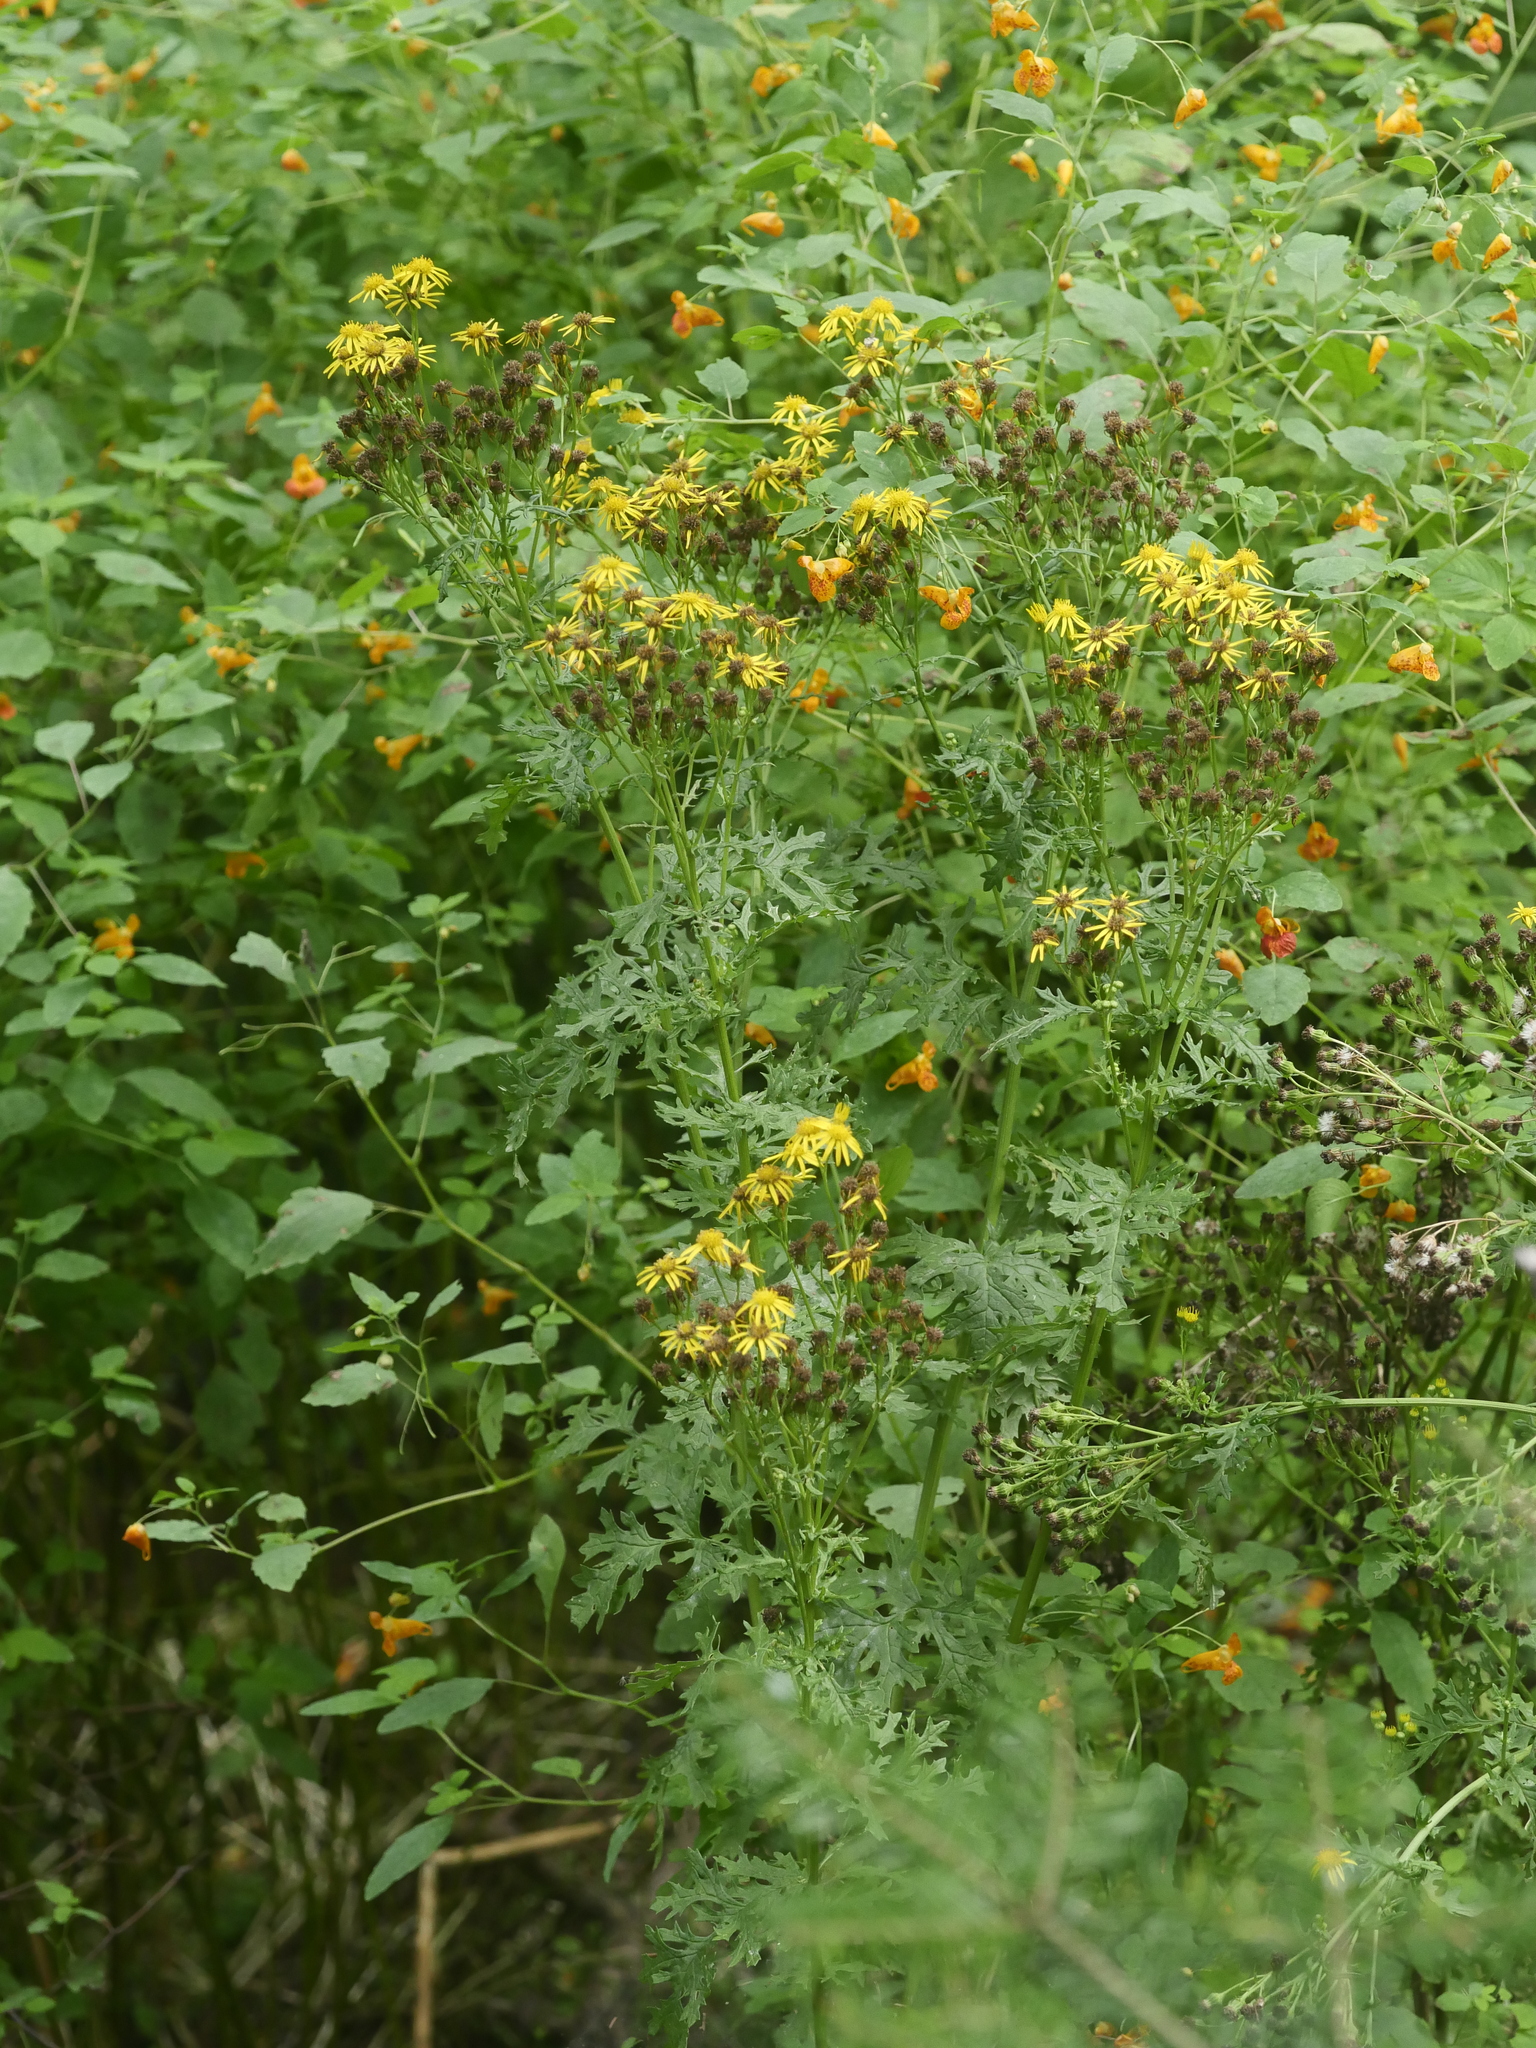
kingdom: Plantae
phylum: Tracheophyta
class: Magnoliopsida
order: Asterales
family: Asteraceae
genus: Jacobaea
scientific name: Jacobaea vulgaris
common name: Stinking willie
